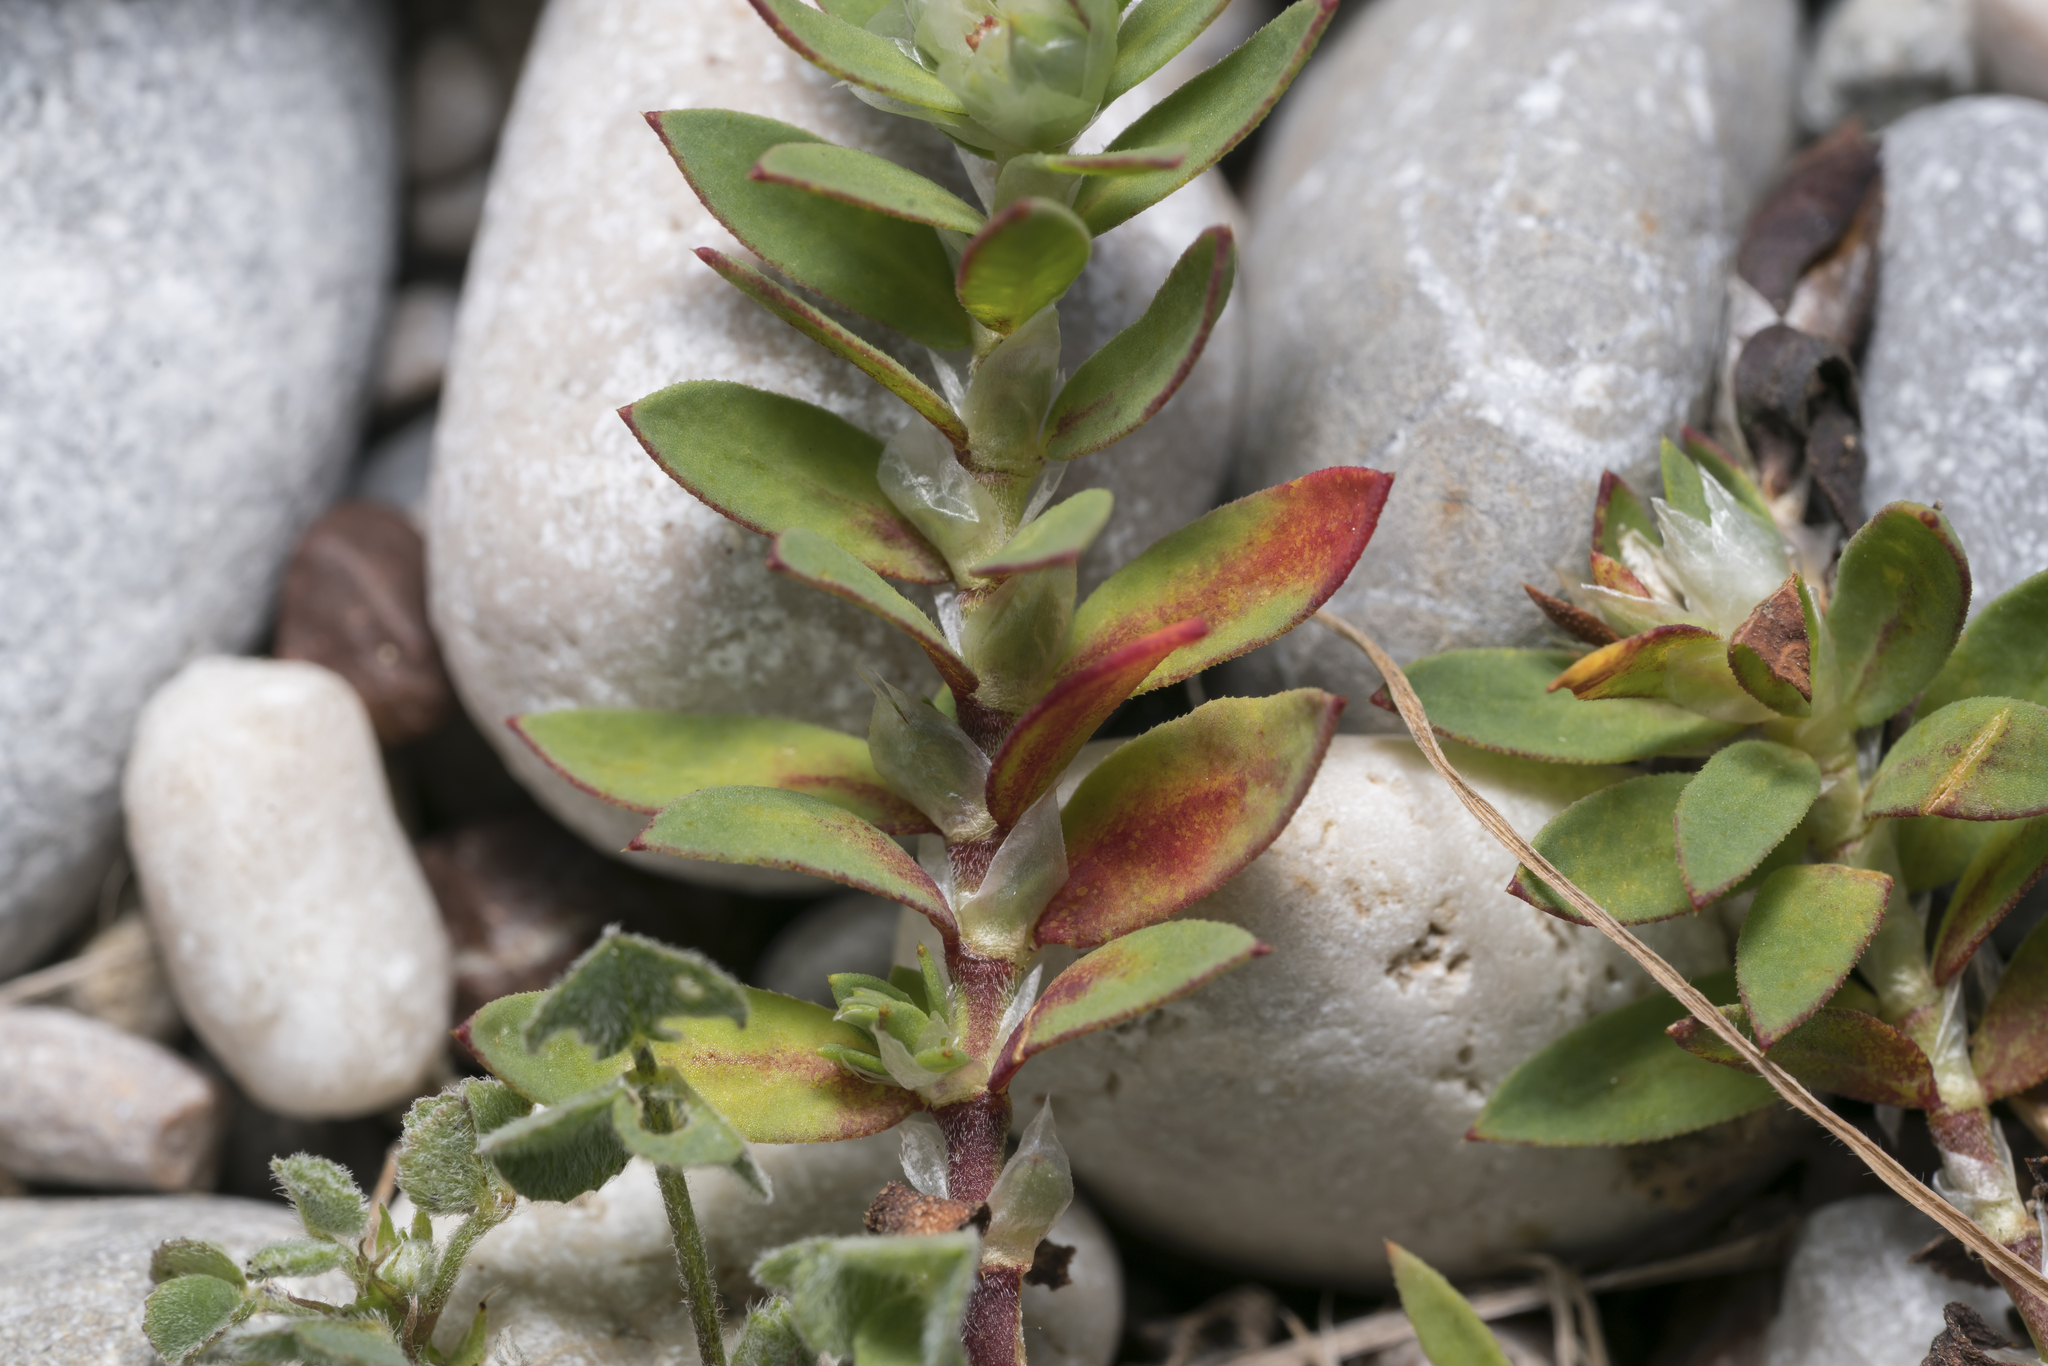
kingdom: Plantae
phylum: Tracheophyta
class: Magnoliopsida
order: Caryophyllales
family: Caryophyllaceae
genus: Paronychia
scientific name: Paronychia argentea
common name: Silver nailroot
